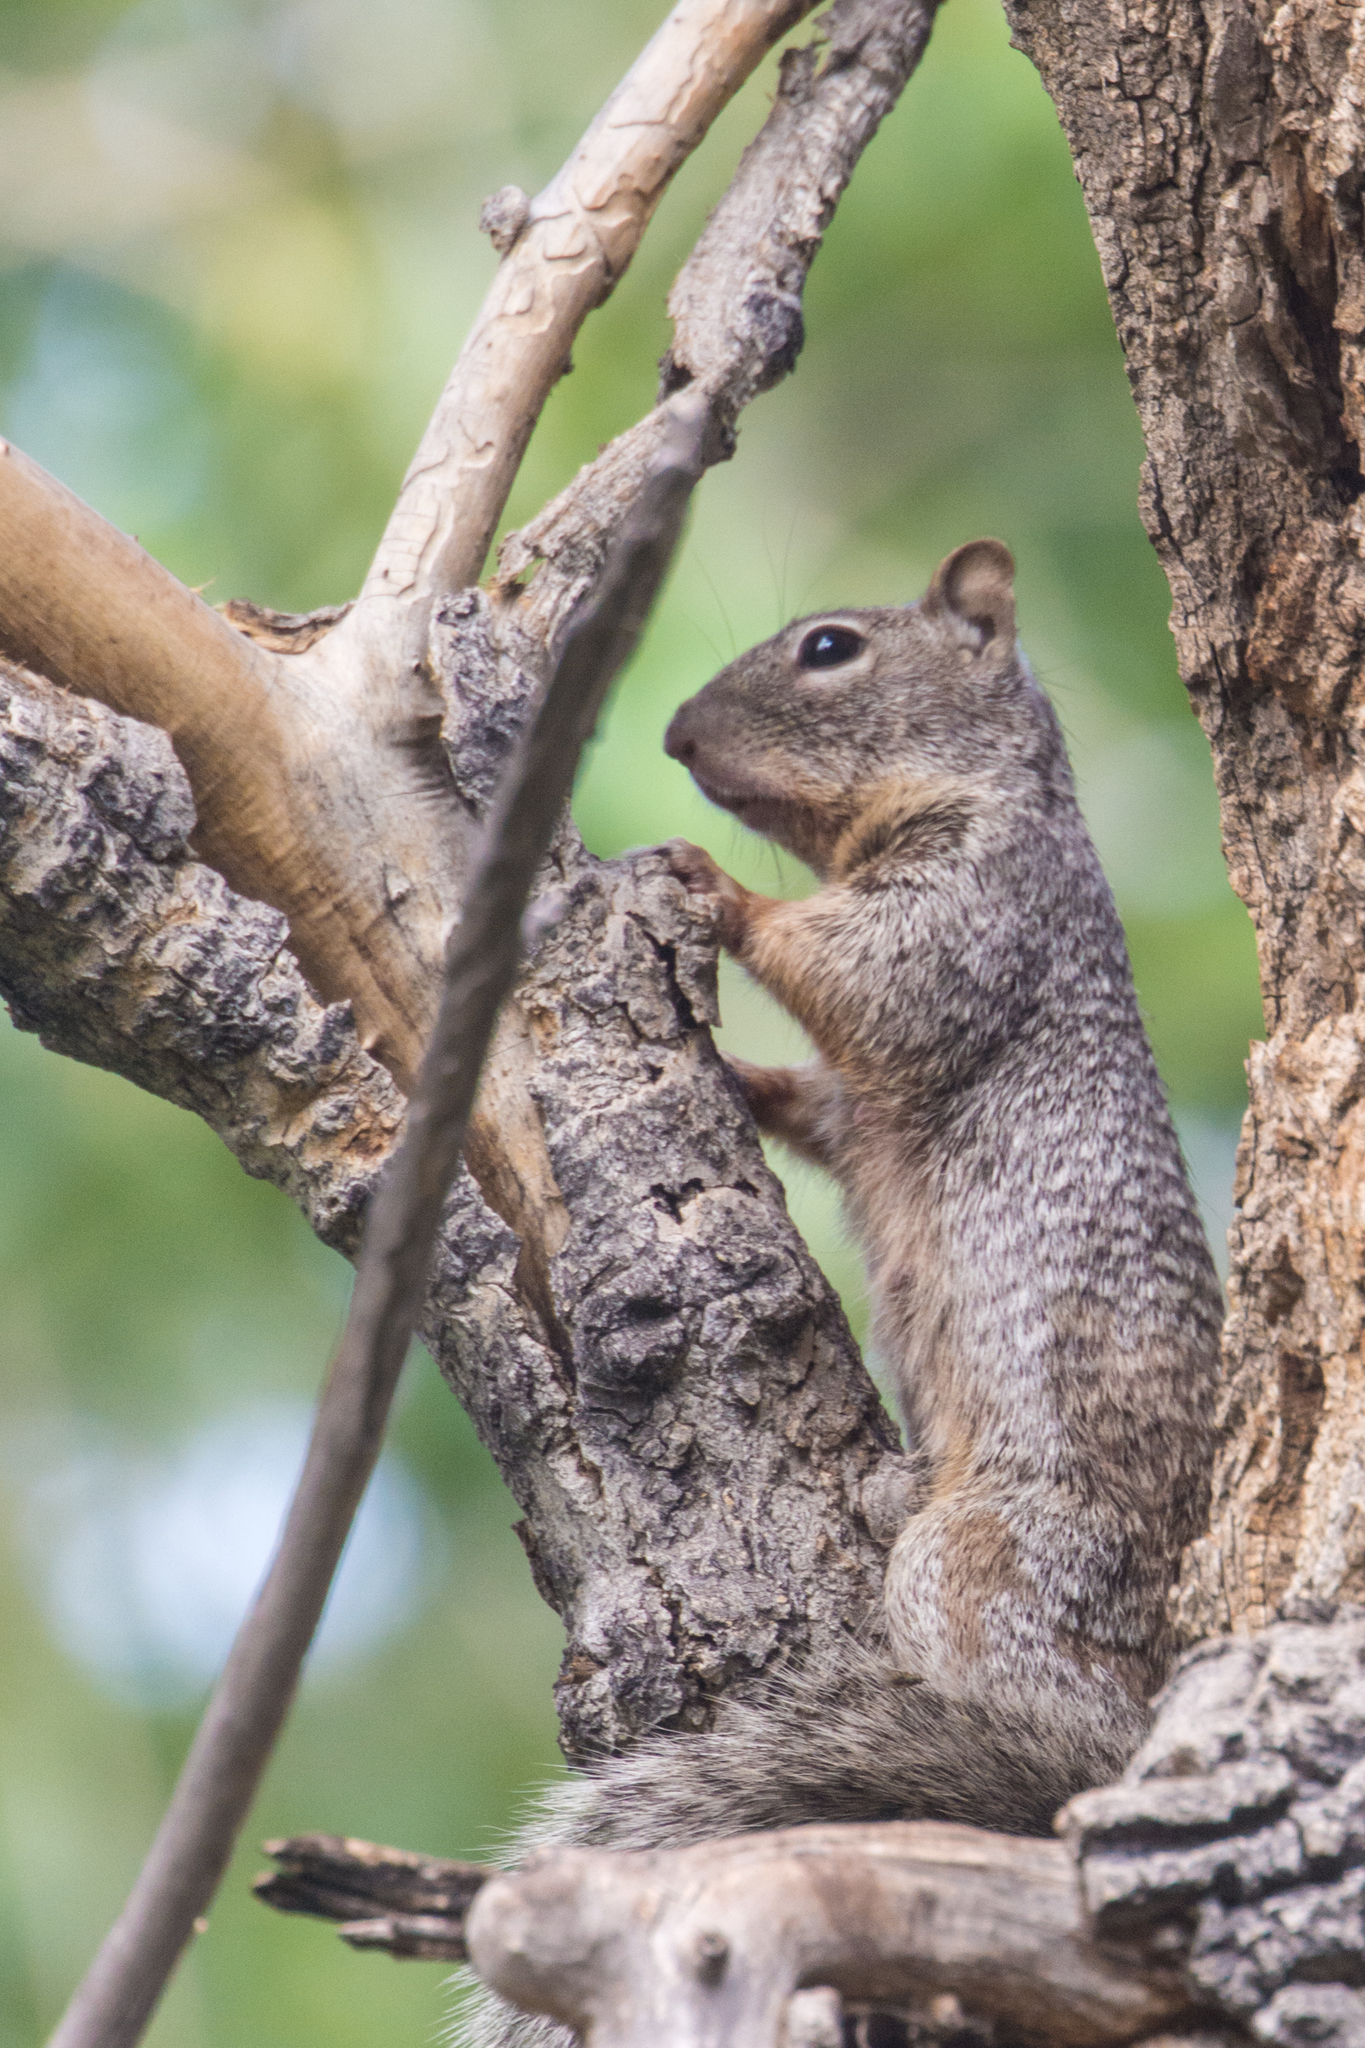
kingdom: Animalia
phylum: Chordata
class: Mammalia
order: Rodentia
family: Sciuridae
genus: Otospermophilus
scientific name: Otospermophilus variegatus
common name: Rock squirrel
